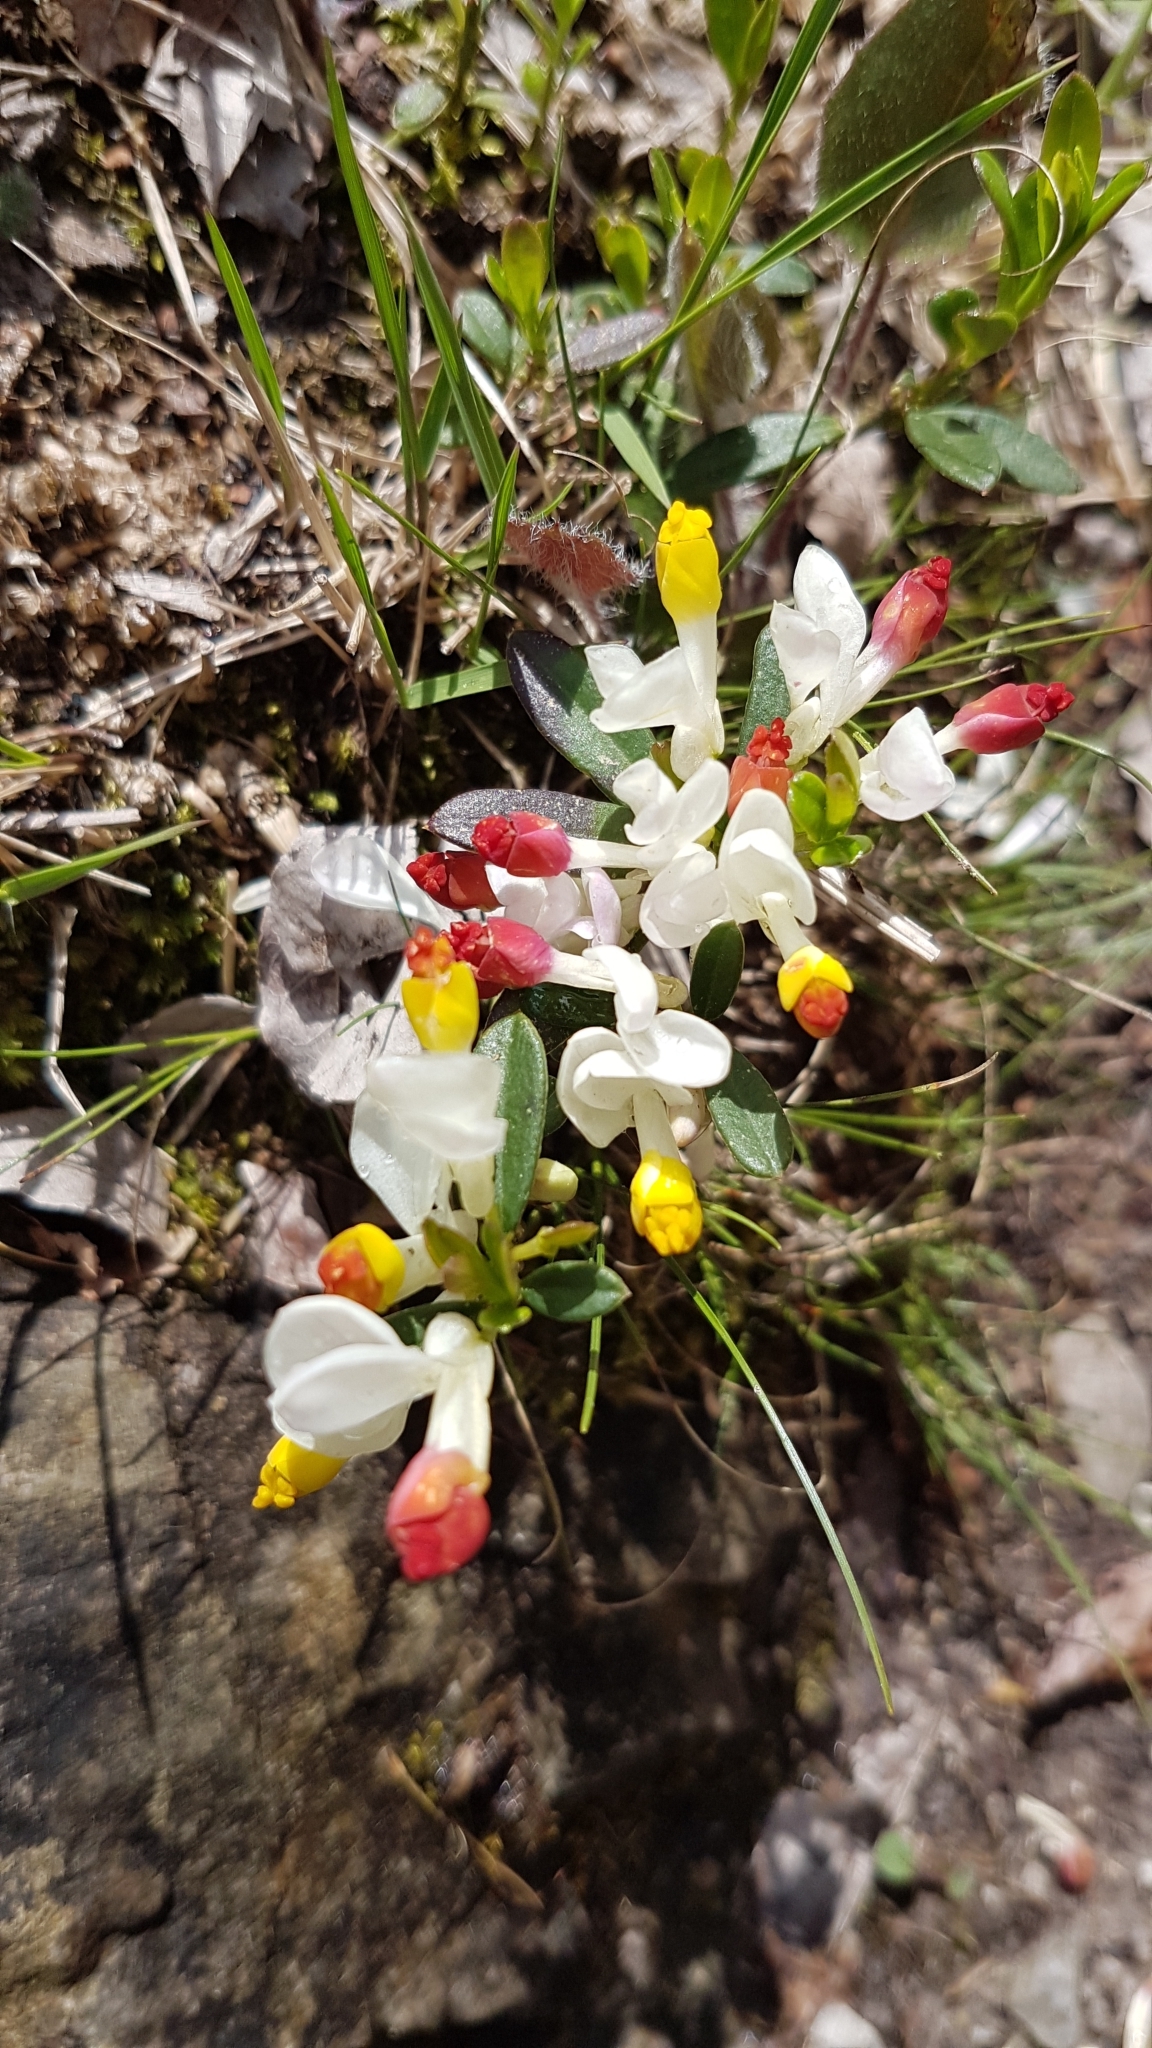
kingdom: Plantae
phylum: Tracheophyta
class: Magnoliopsida
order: Fabales
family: Polygalaceae
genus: Polygaloides
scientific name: Polygaloides chamaebuxus
